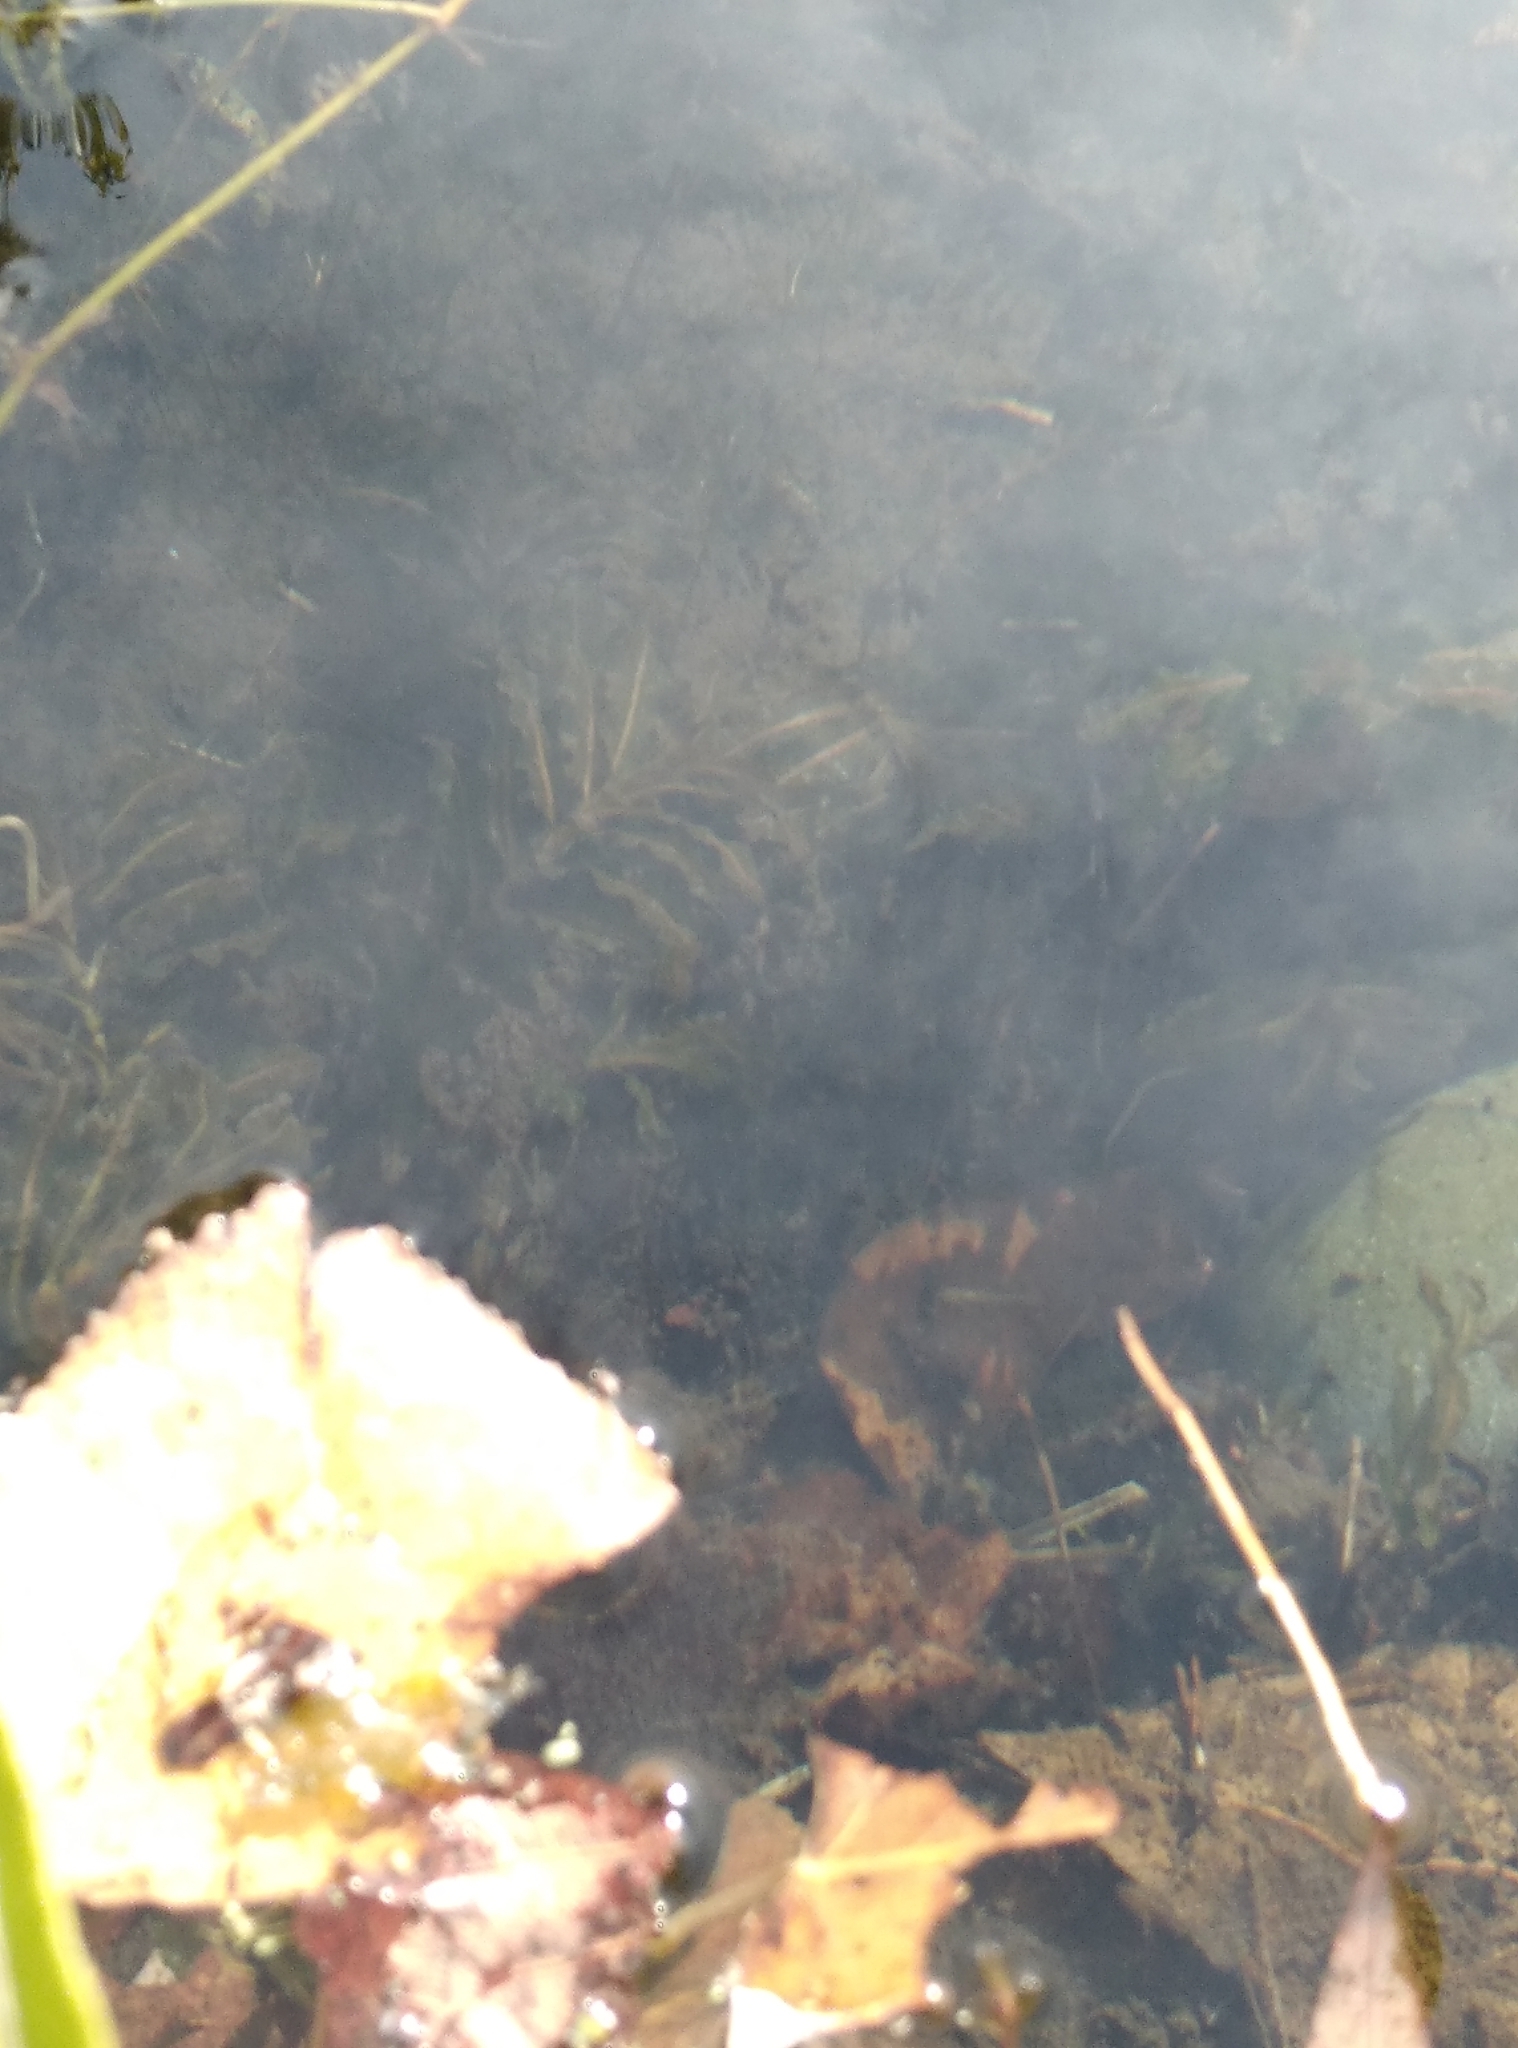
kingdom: Plantae
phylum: Tracheophyta
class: Liliopsida
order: Alismatales
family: Potamogetonaceae
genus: Potamogeton
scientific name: Potamogeton crispus
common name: Curled pondweed
